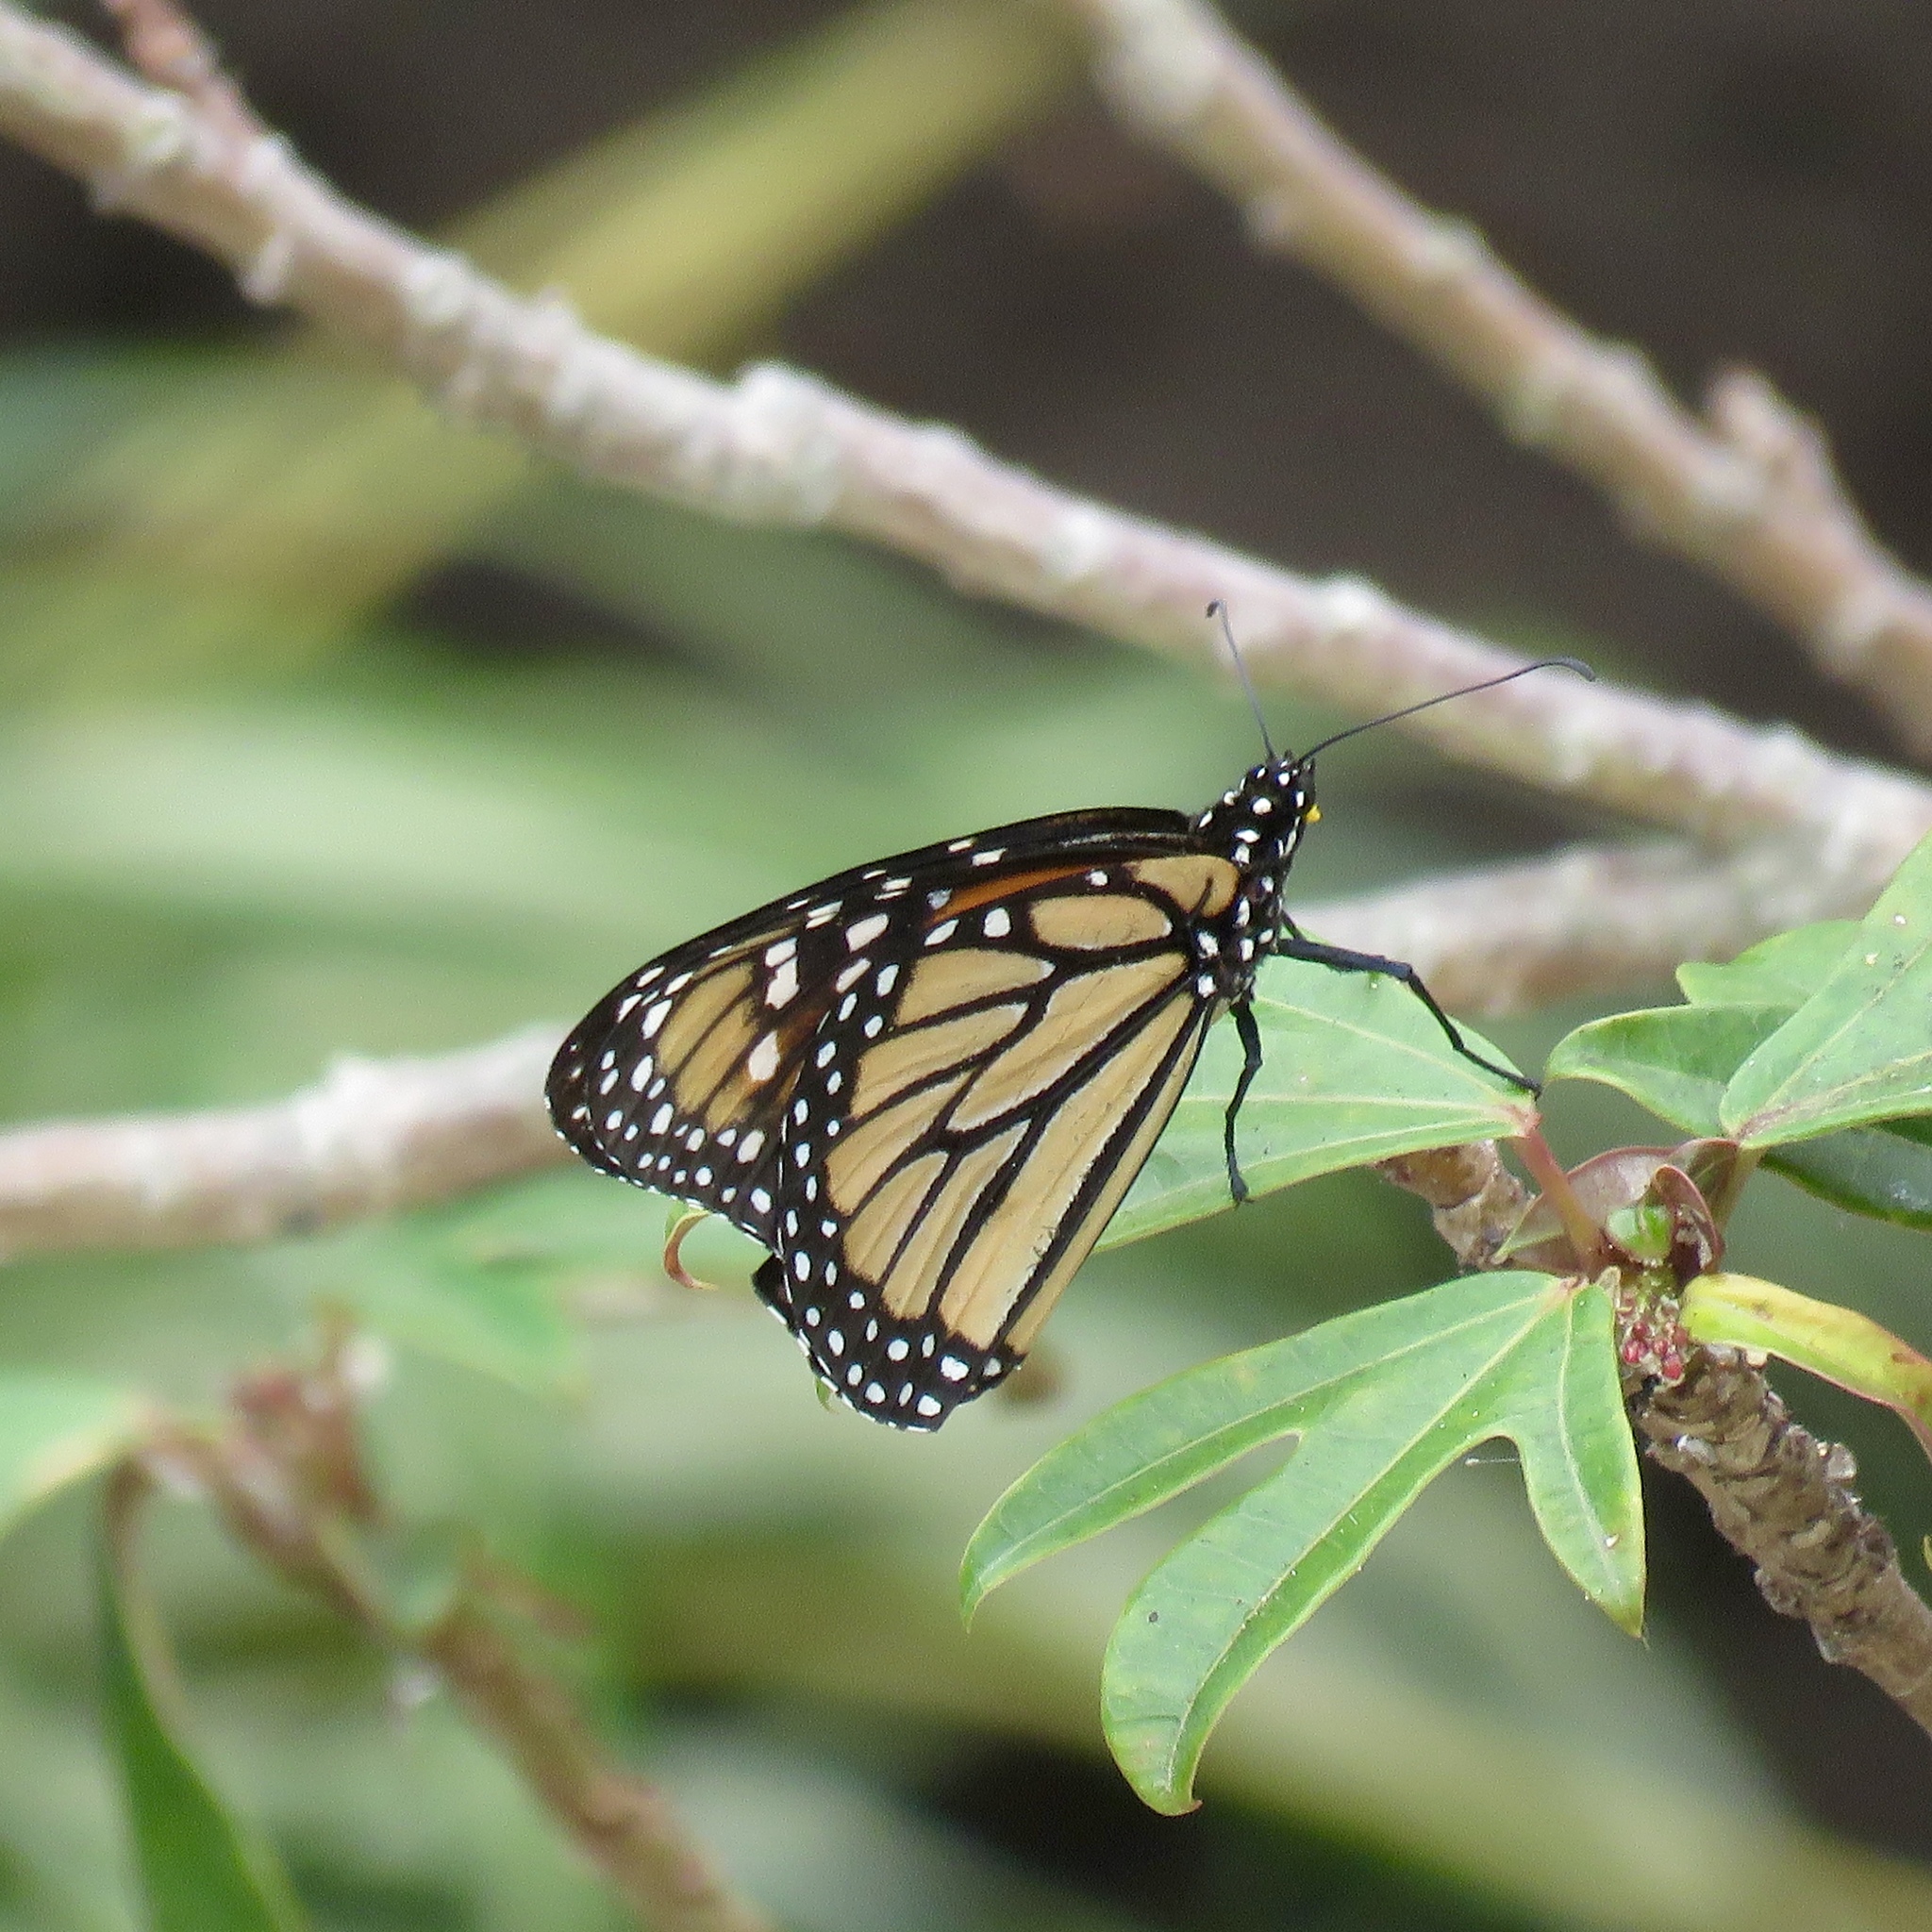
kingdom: Animalia
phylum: Arthropoda
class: Insecta
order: Lepidoptera
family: Nymphalidae
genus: Danaus
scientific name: Danaus plexippus
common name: Monarch
